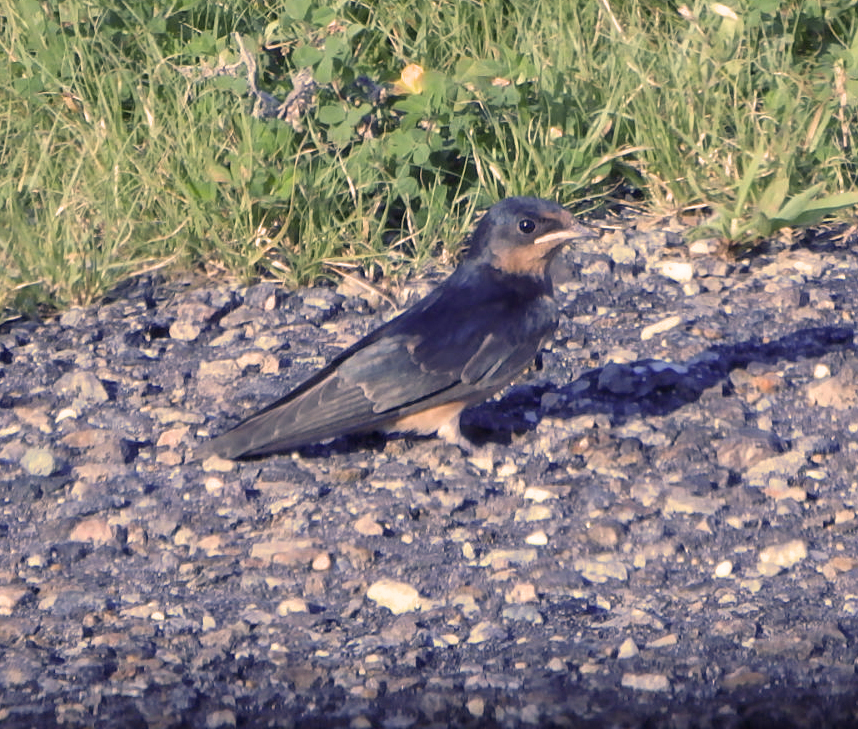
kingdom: Animalia
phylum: Chordata
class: Aves
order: Passeriformes
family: Hirundinidae
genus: Hirundo
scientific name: Hirundo rustica
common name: Barn swallow
